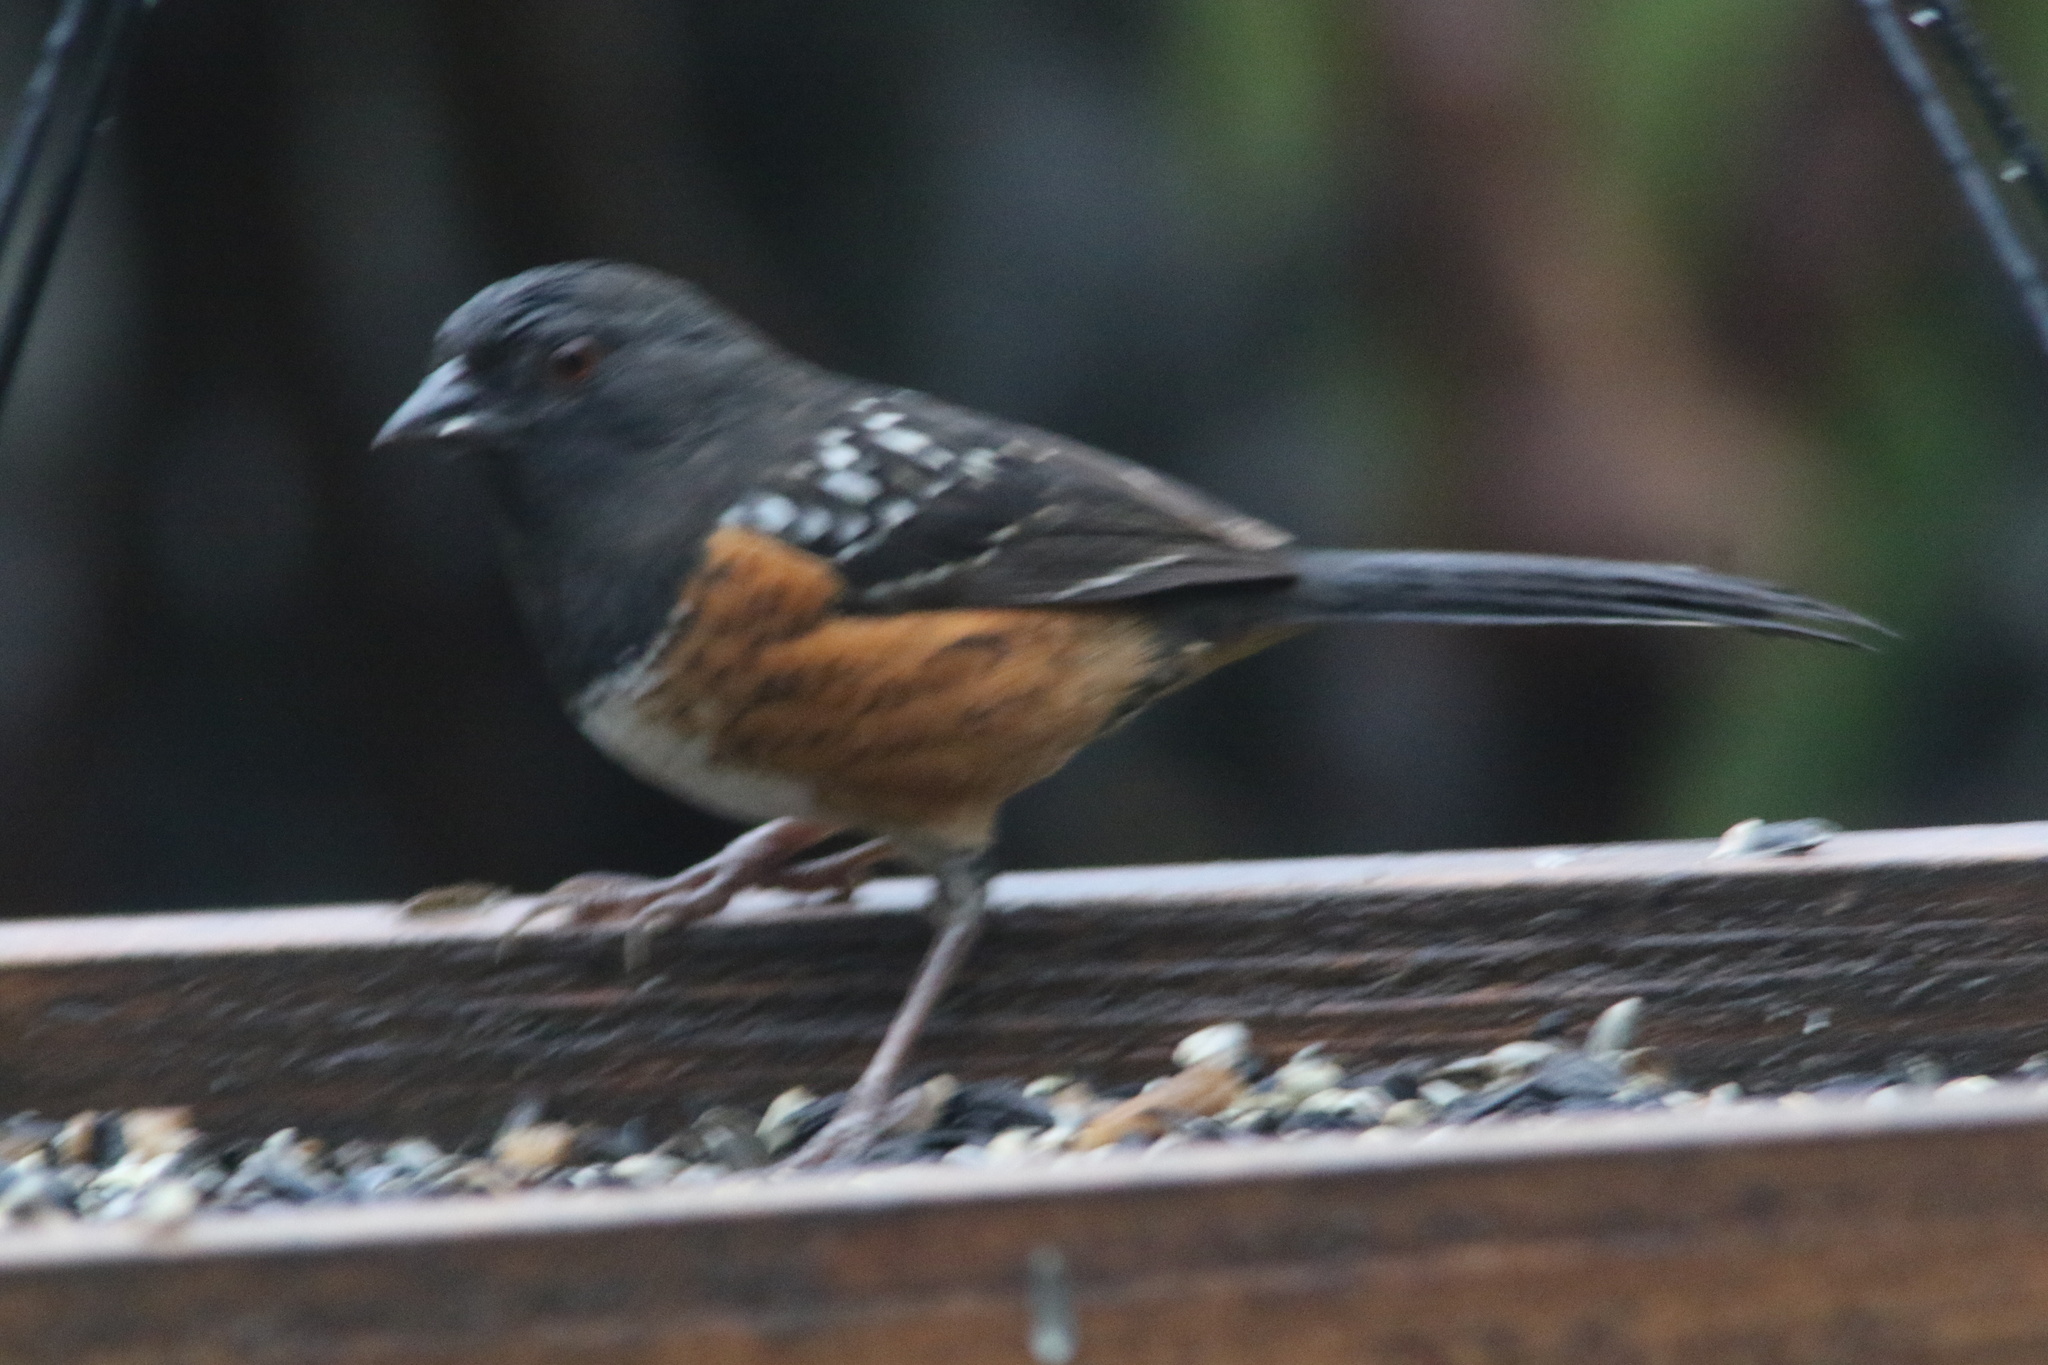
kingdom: Animalia
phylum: Chordata
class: Aves
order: Passeriformes
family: Passerellidae
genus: Pipilo
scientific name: Pipilo maculatus
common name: Spotted towhee
